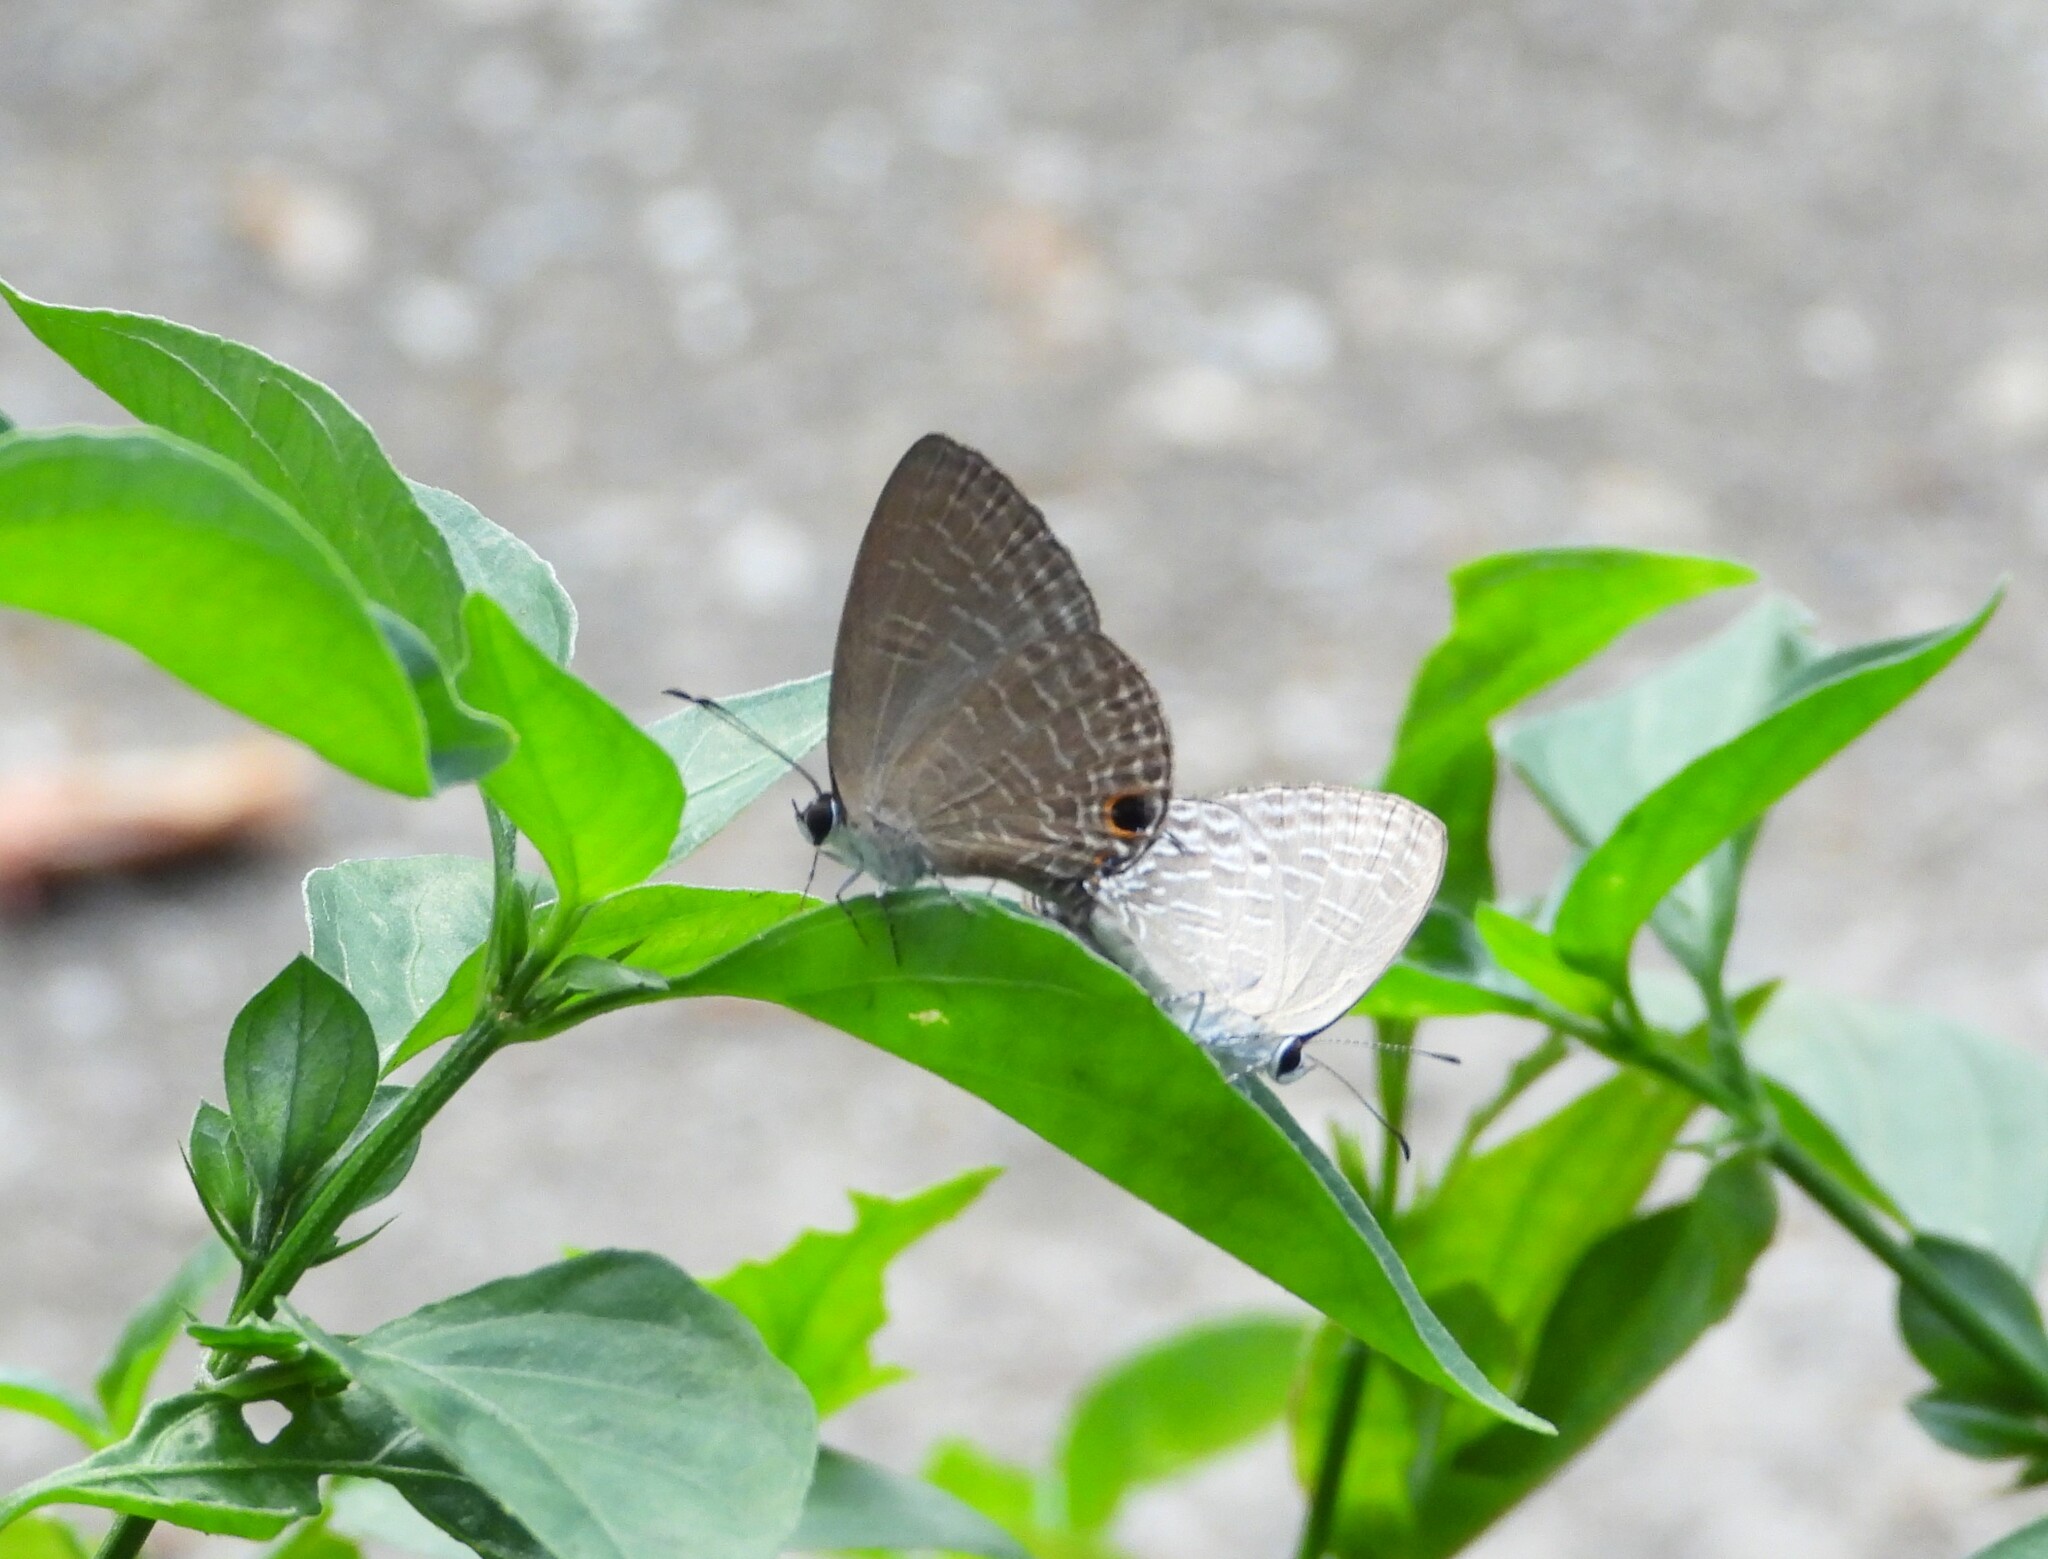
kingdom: Animalia
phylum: Arthropoda
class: Insecta
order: Lepidoptera
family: Lycaenidae
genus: Jamides
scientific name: Jamides bochus
